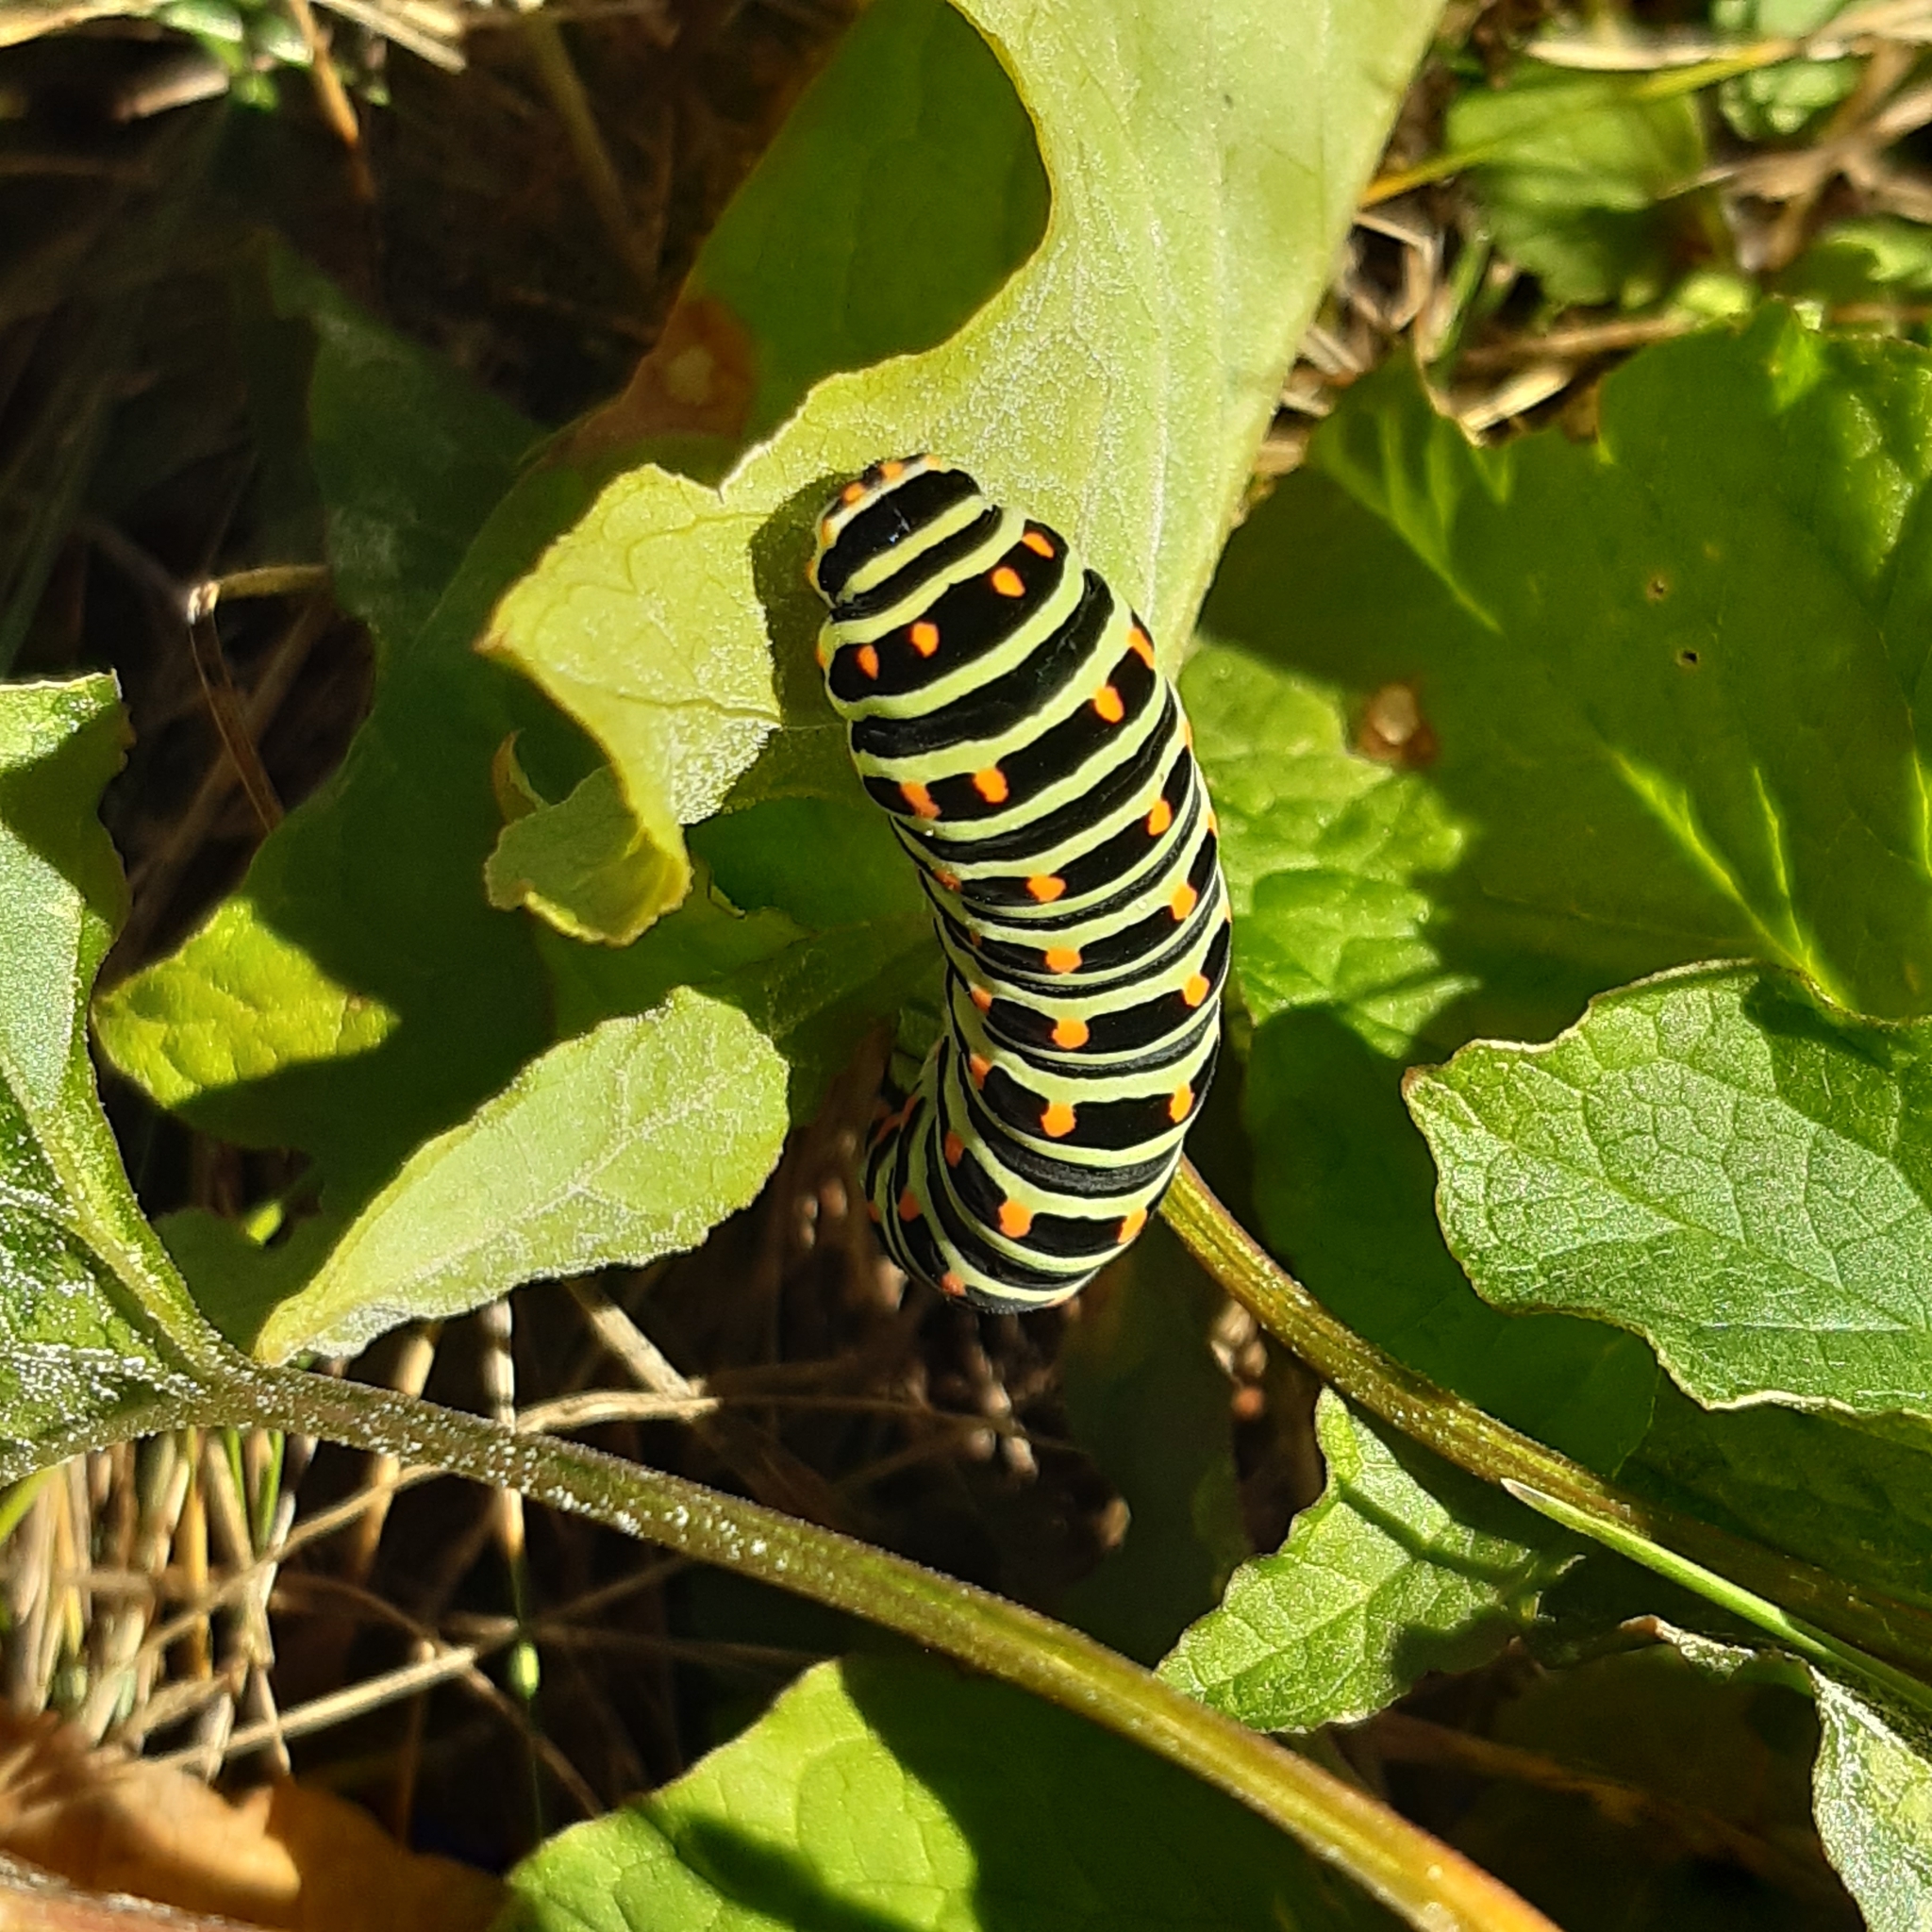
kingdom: Animalia
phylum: Arthropoda
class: Insecta
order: Lepidoptera
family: Papilionidae
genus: Papilio
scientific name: Papilio machaon
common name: Swallowtail
